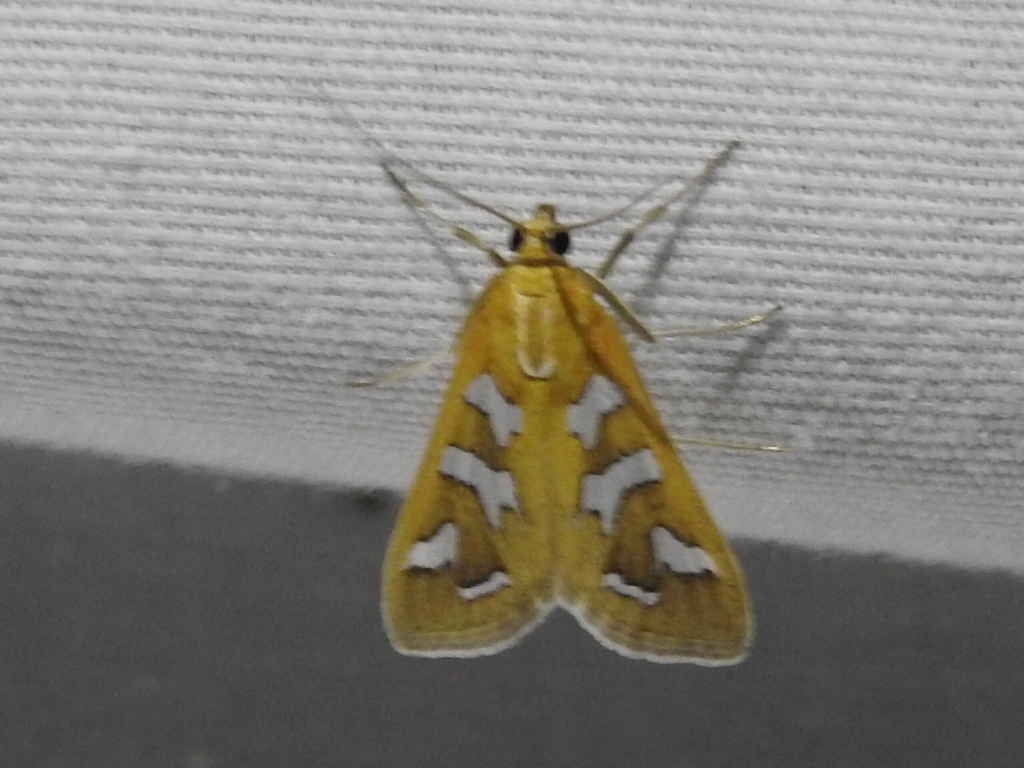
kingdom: Animalia
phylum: Arthropoda
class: Insecta
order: Lepidoptera
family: Crambidae
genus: Diastictis
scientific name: Diastictis fracturalis
